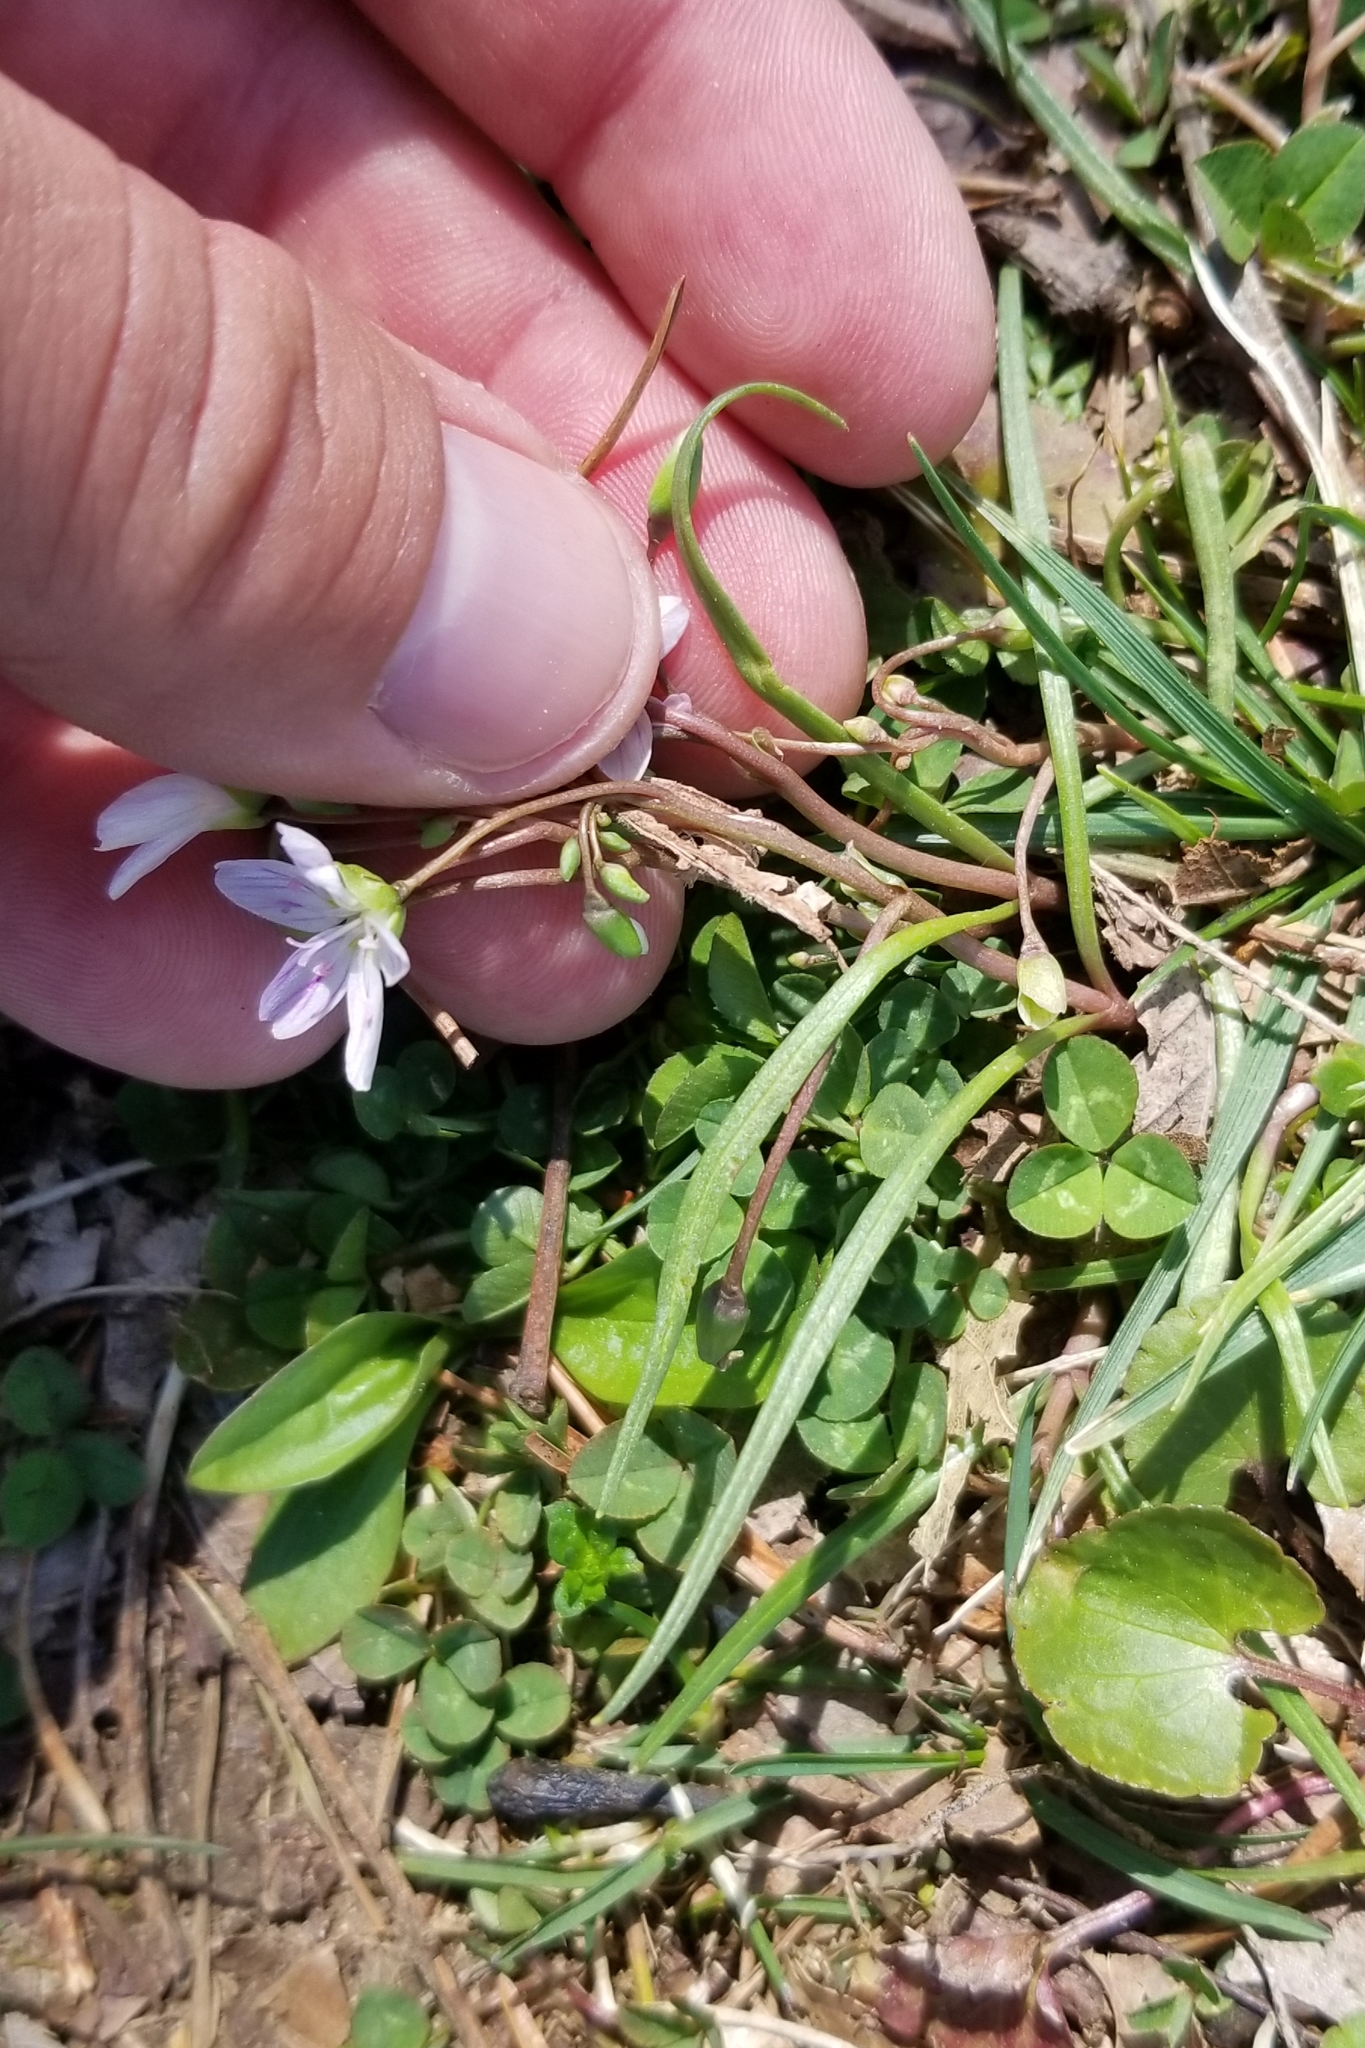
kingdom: Plantae
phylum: Tracheophyta
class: Magnoliopsida
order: Caryophyllales
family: Montiaceae
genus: Claytonia
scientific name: Claytonia virginica
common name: Virginia springbeauty
